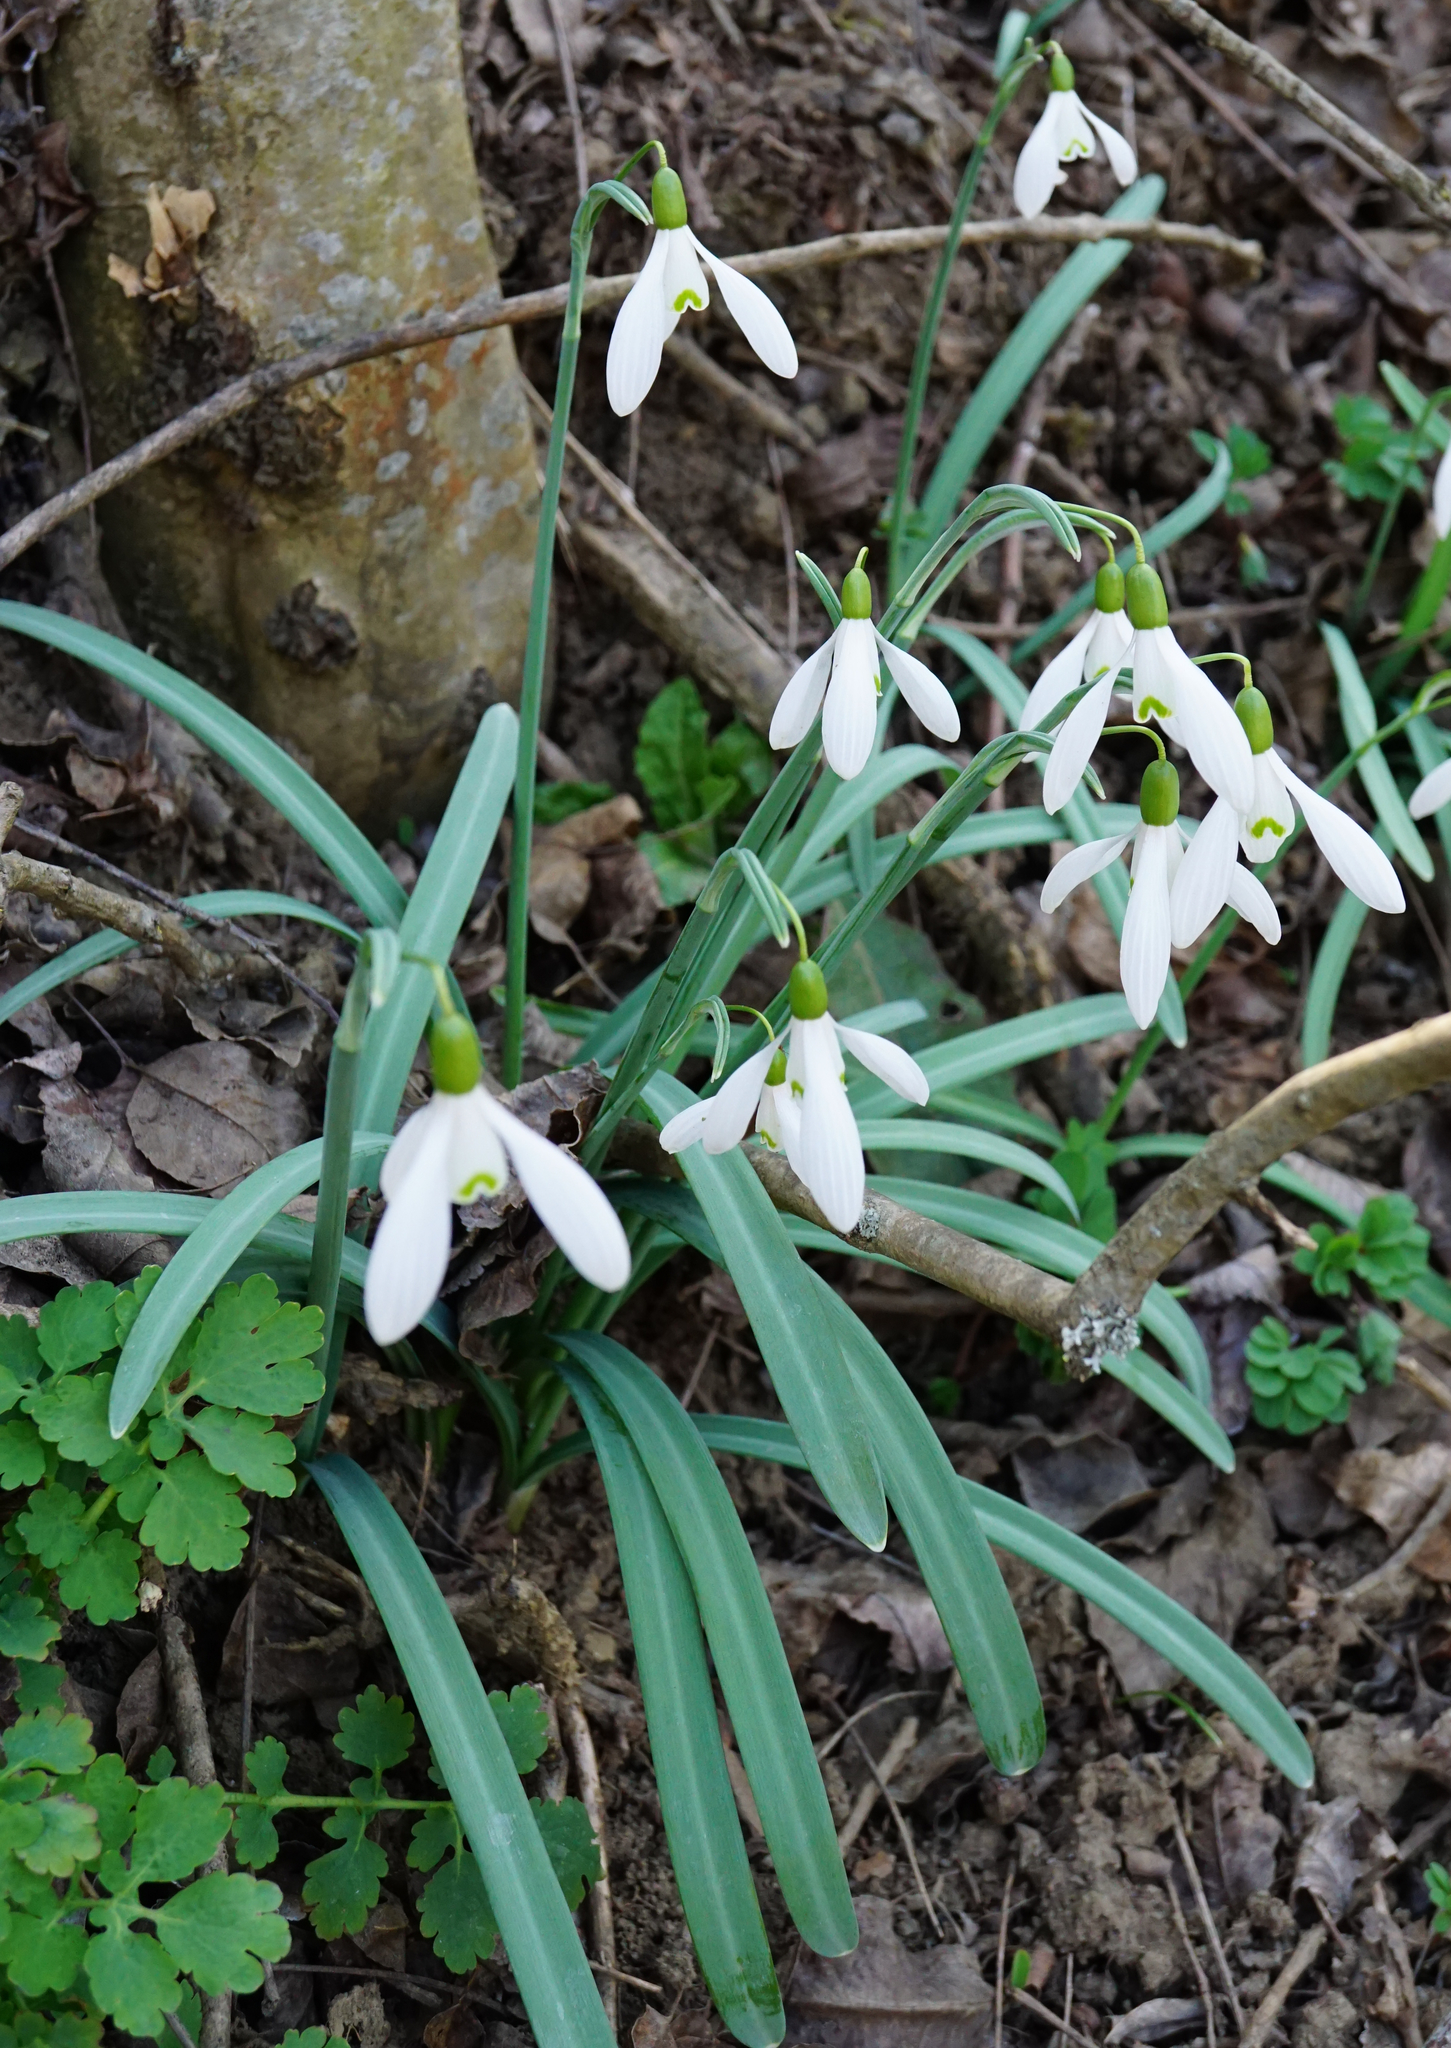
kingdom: Plantae
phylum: Tracheophyta
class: Liliopsida
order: Asparagales
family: Amaryllidaceae
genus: Galanthus
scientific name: Galanthus nivalis
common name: Snowdrop
